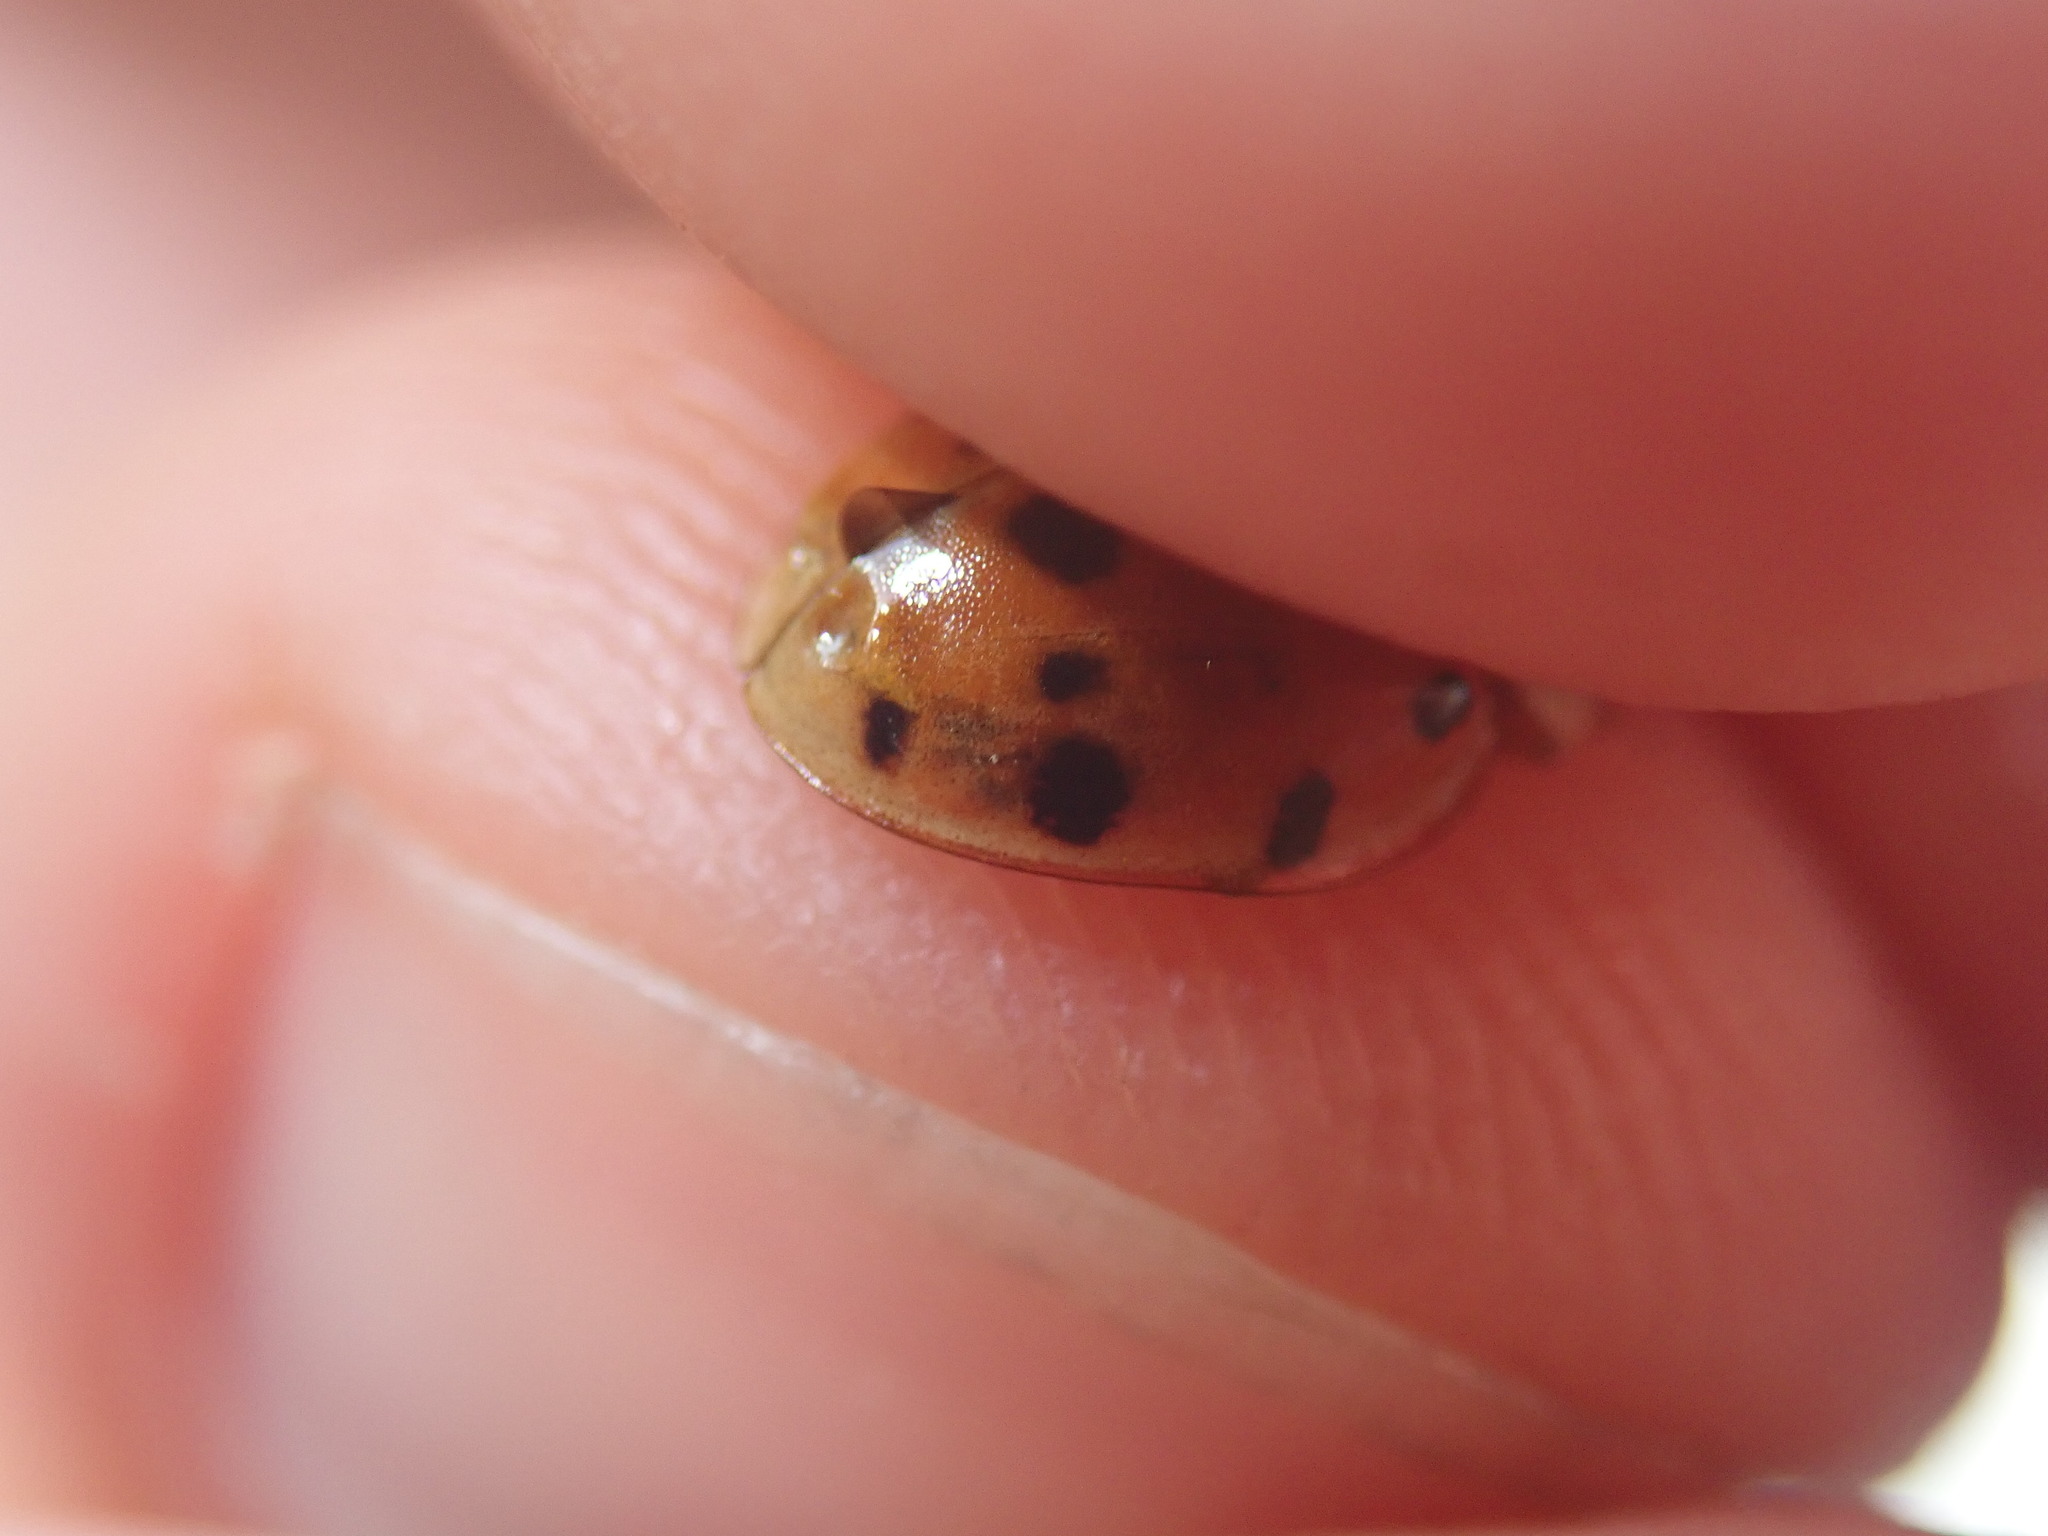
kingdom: Animalia
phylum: Arthropoda
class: Insecta
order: Coleoptera
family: Coccinellidae
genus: Harmonia
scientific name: Harmonia axyridis
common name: Harlequin ladybird
